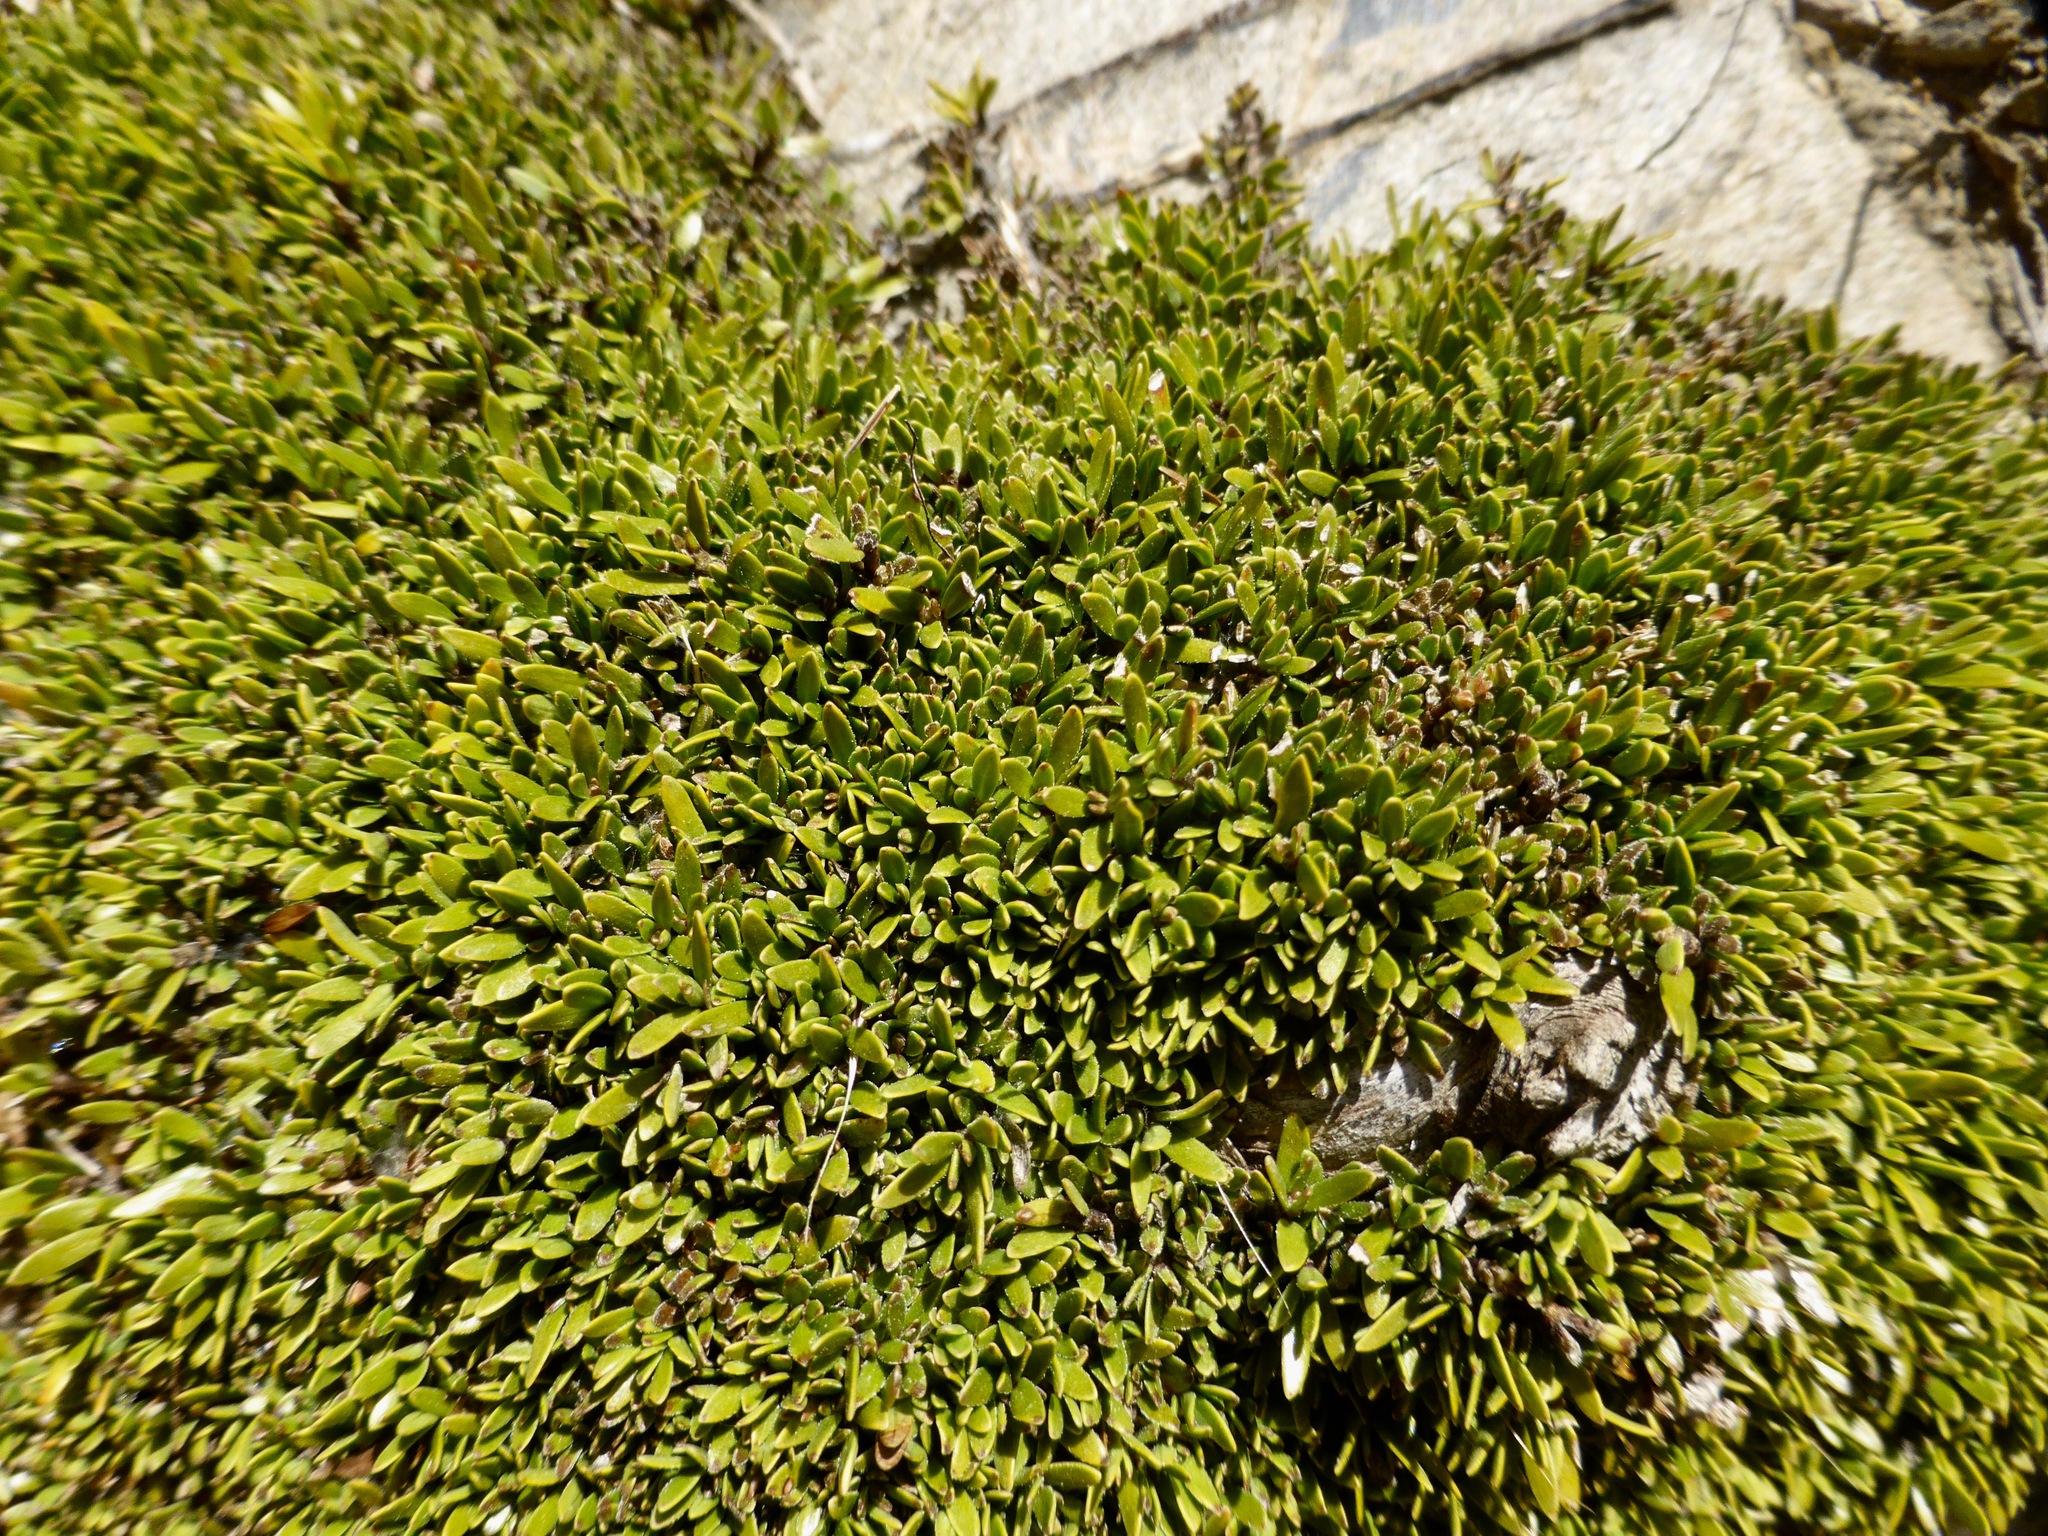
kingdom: Plantae
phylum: Tracheophyta
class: Magnoliopsida
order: Gentianales
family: Rubiaceae
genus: Coprosma
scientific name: Coprosma petriei
